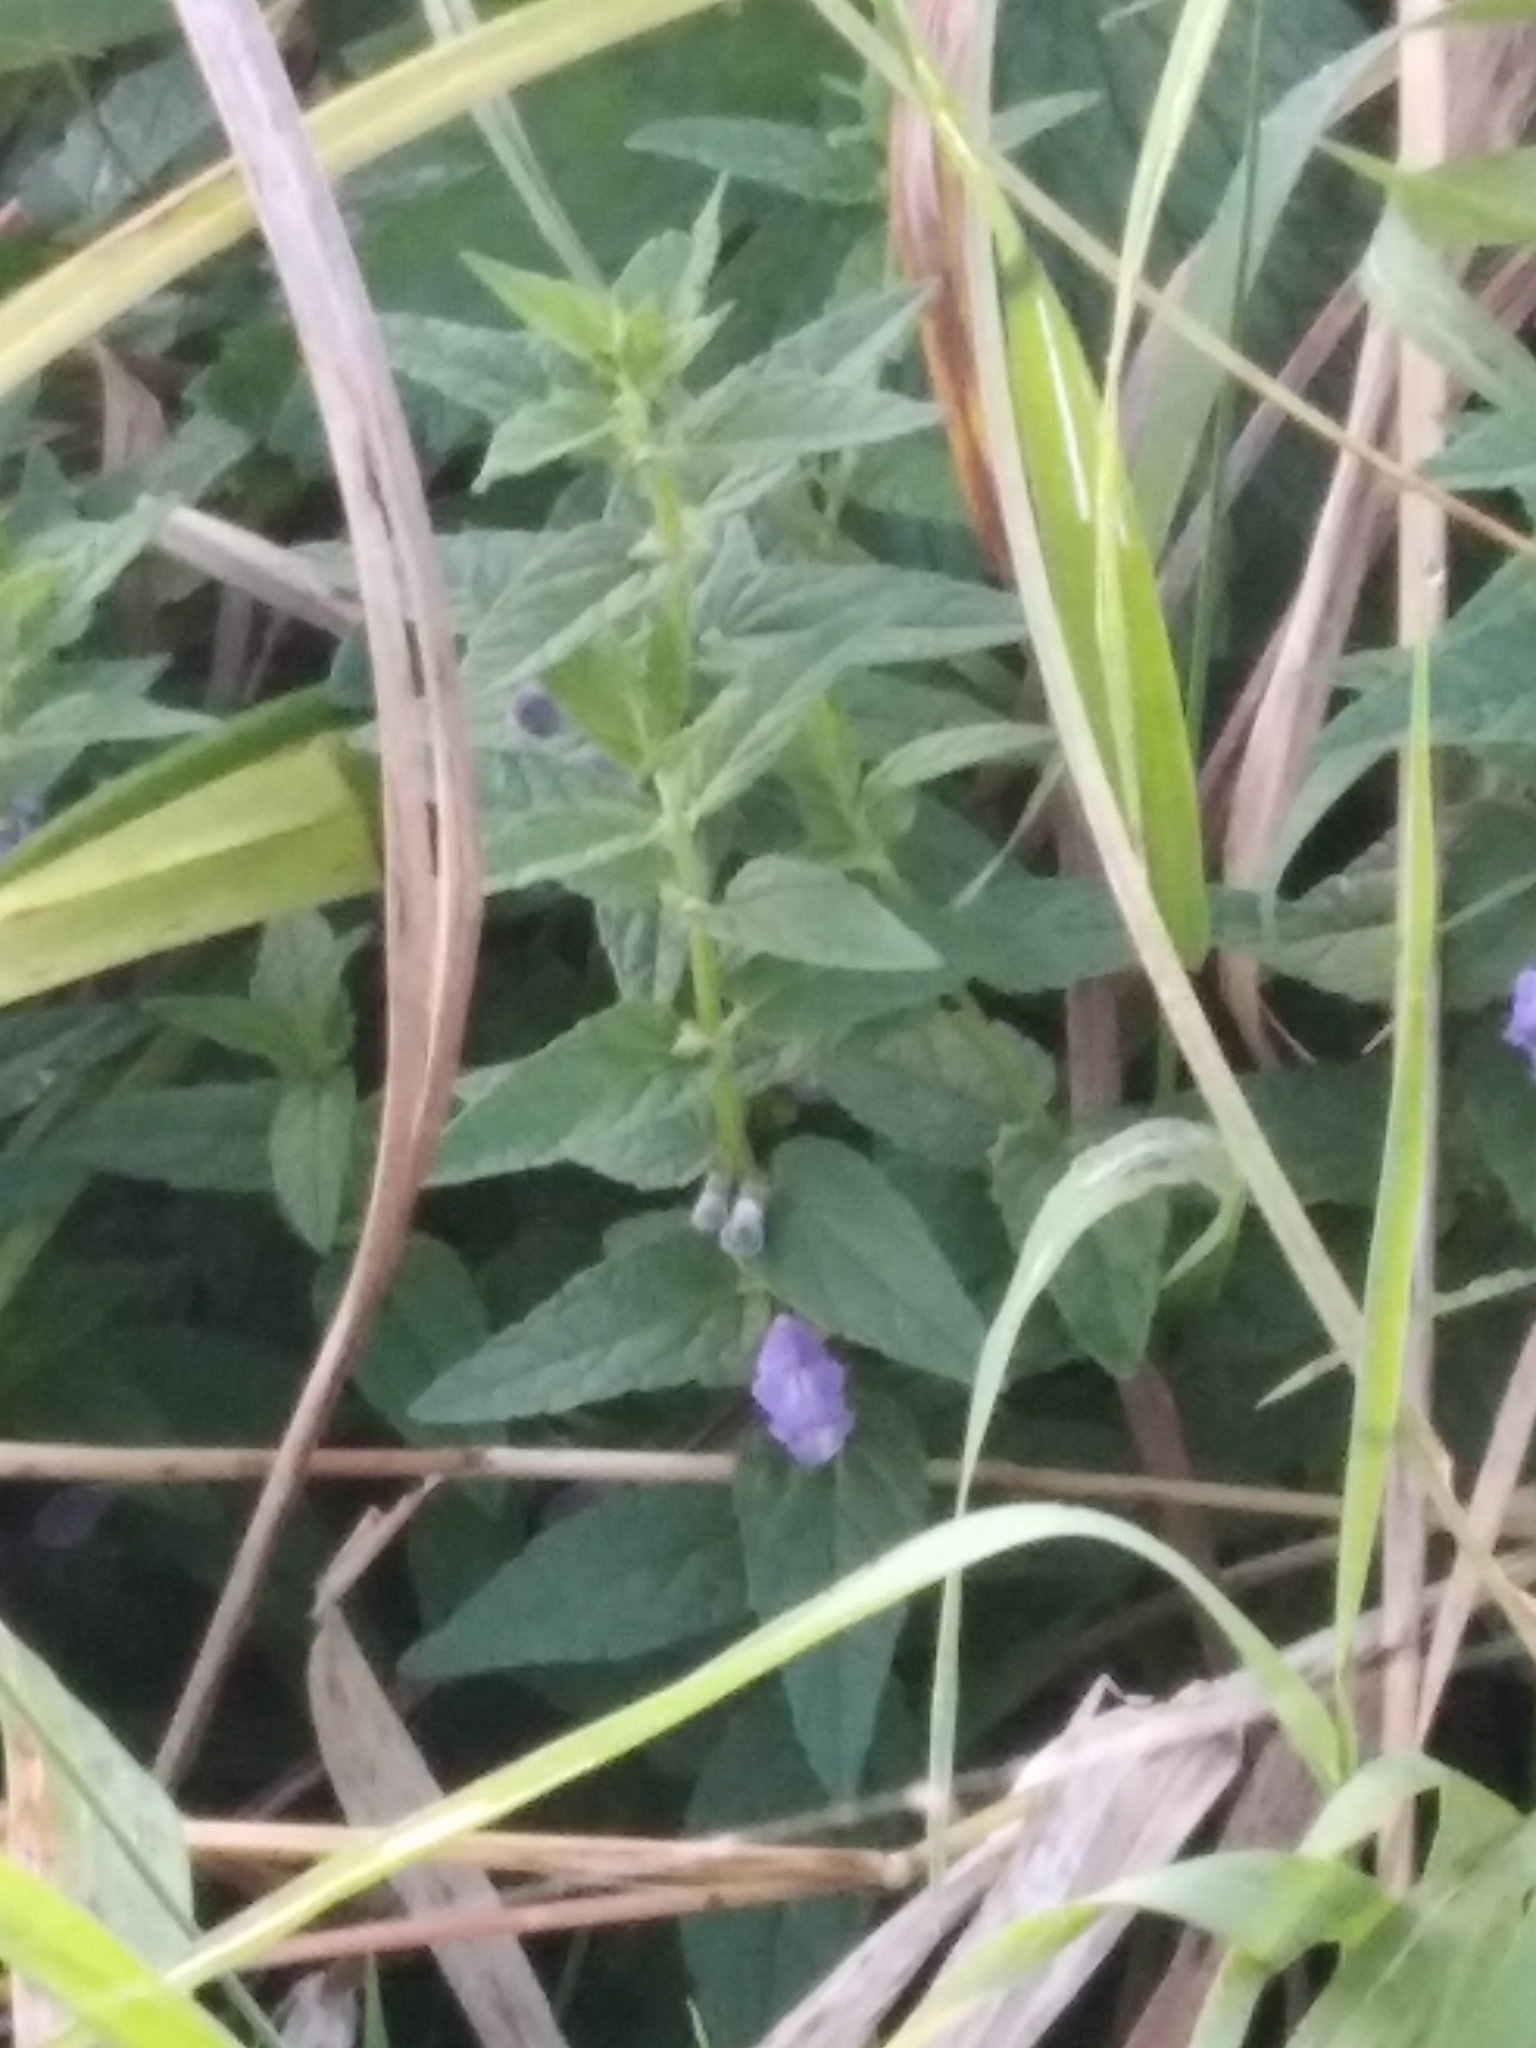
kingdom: Plantae
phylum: Tracheophyta
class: Magnoliopsida
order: Lamiales
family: Lamiaceae
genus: Scutellaria
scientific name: Scutellaria galericulata
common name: Skullcap
